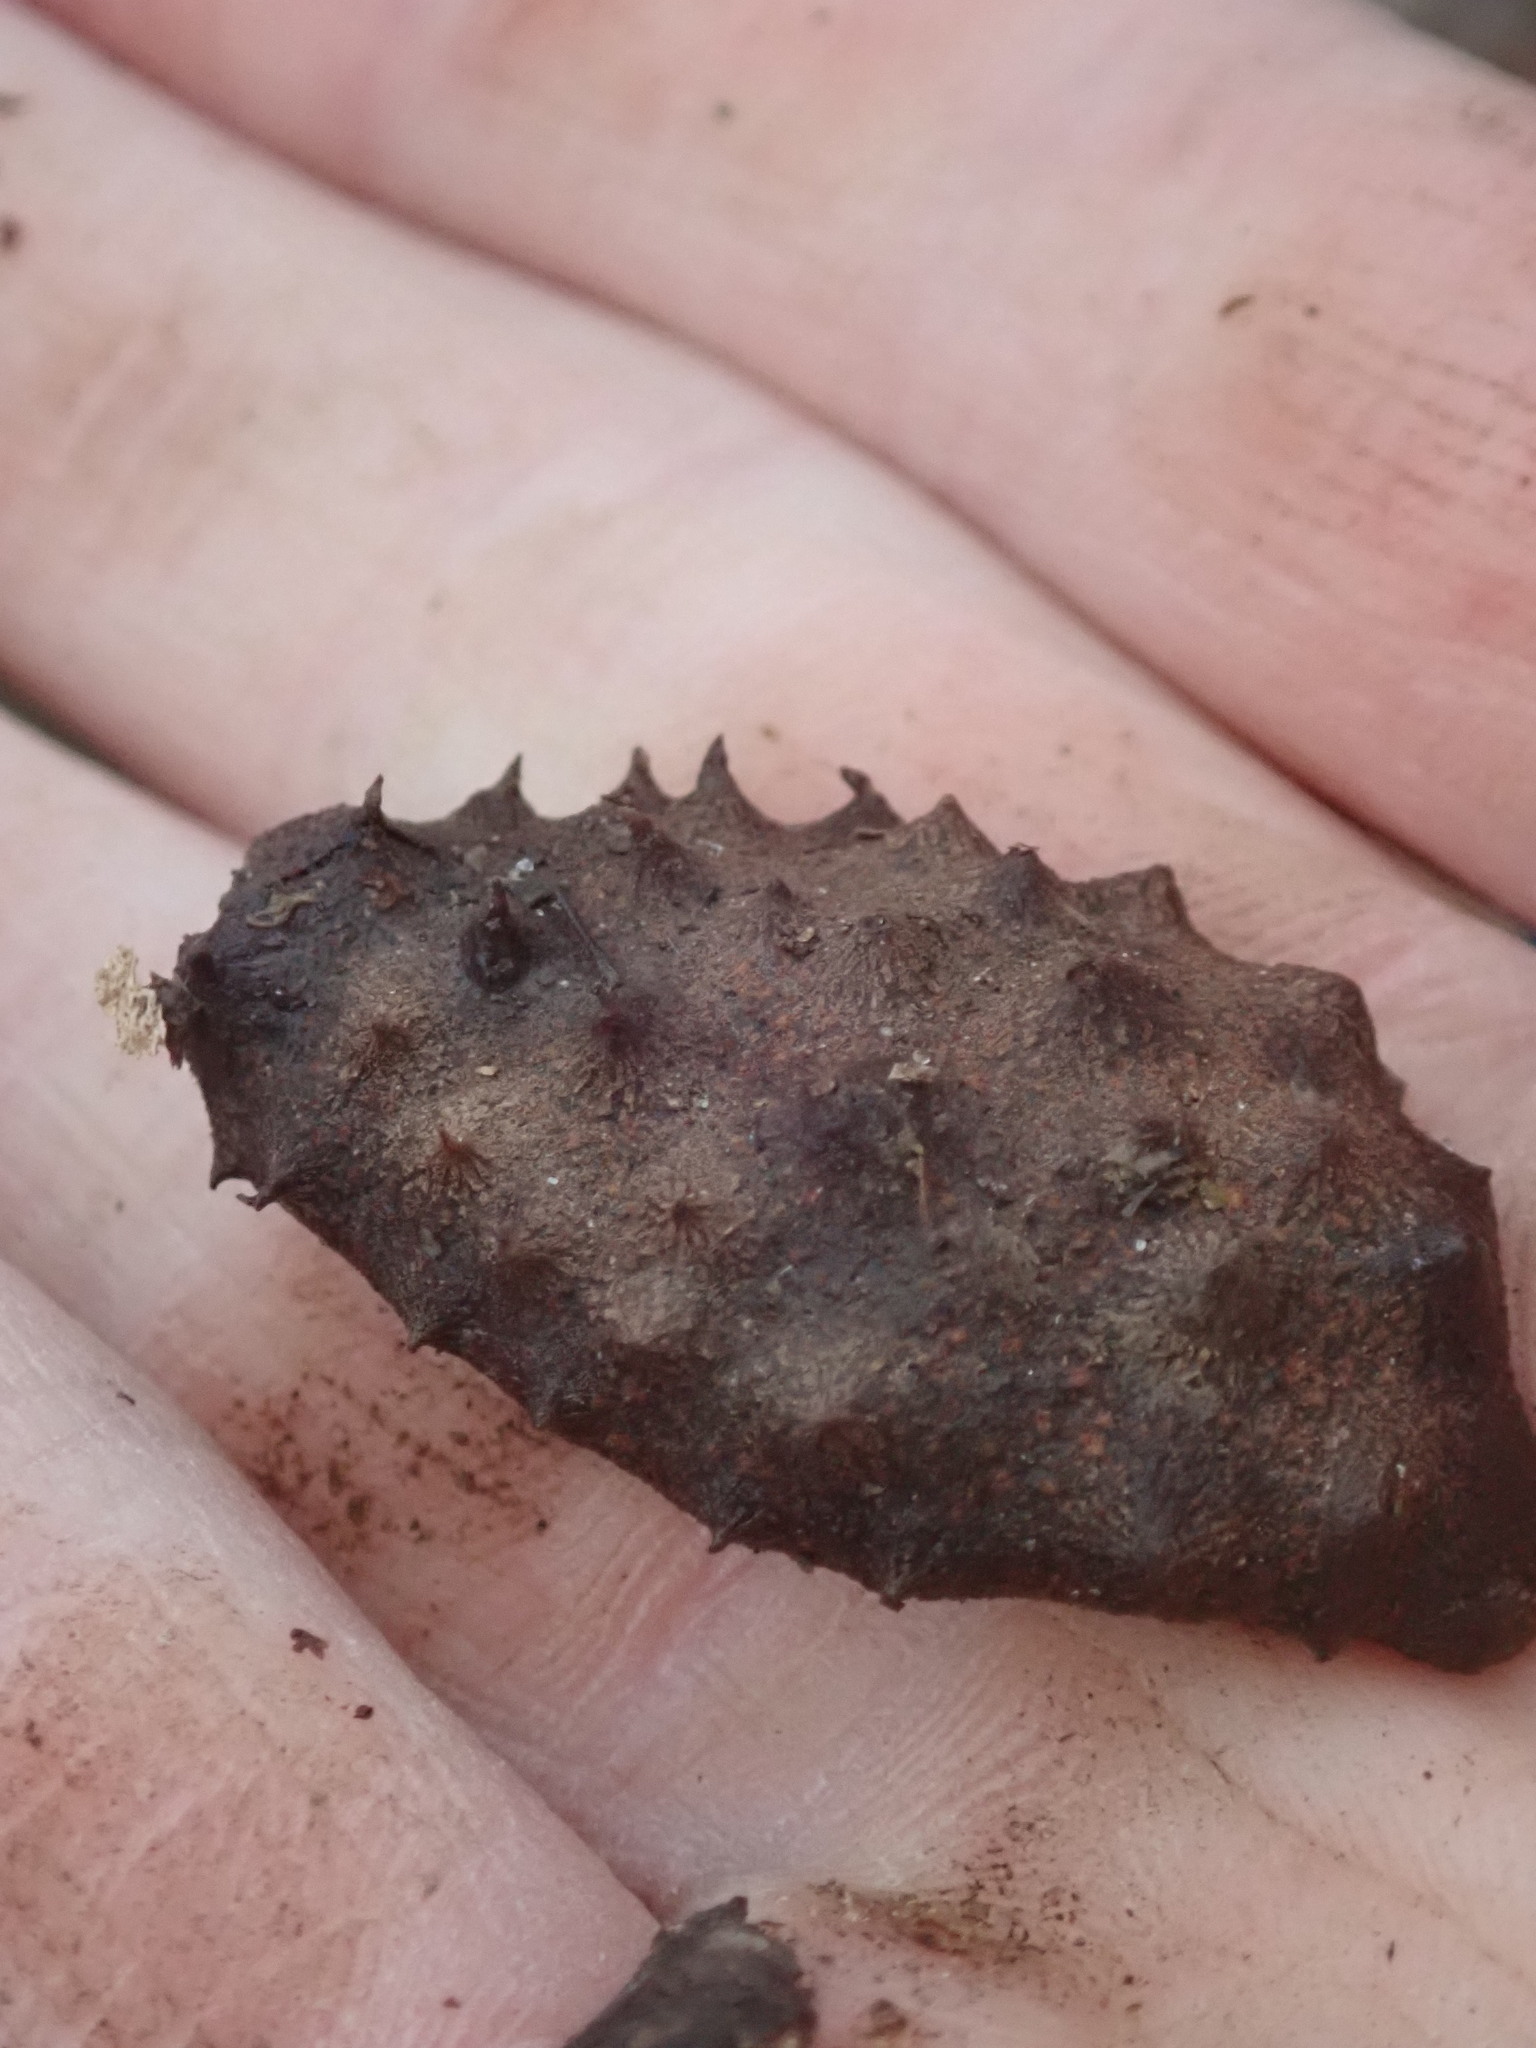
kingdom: Plantae
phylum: Tracheophyta
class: Magnoliopsida
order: Sapindales
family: Sapindaceae
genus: Aesculus
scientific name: Aesculus glabra
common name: Ohio buckeye
